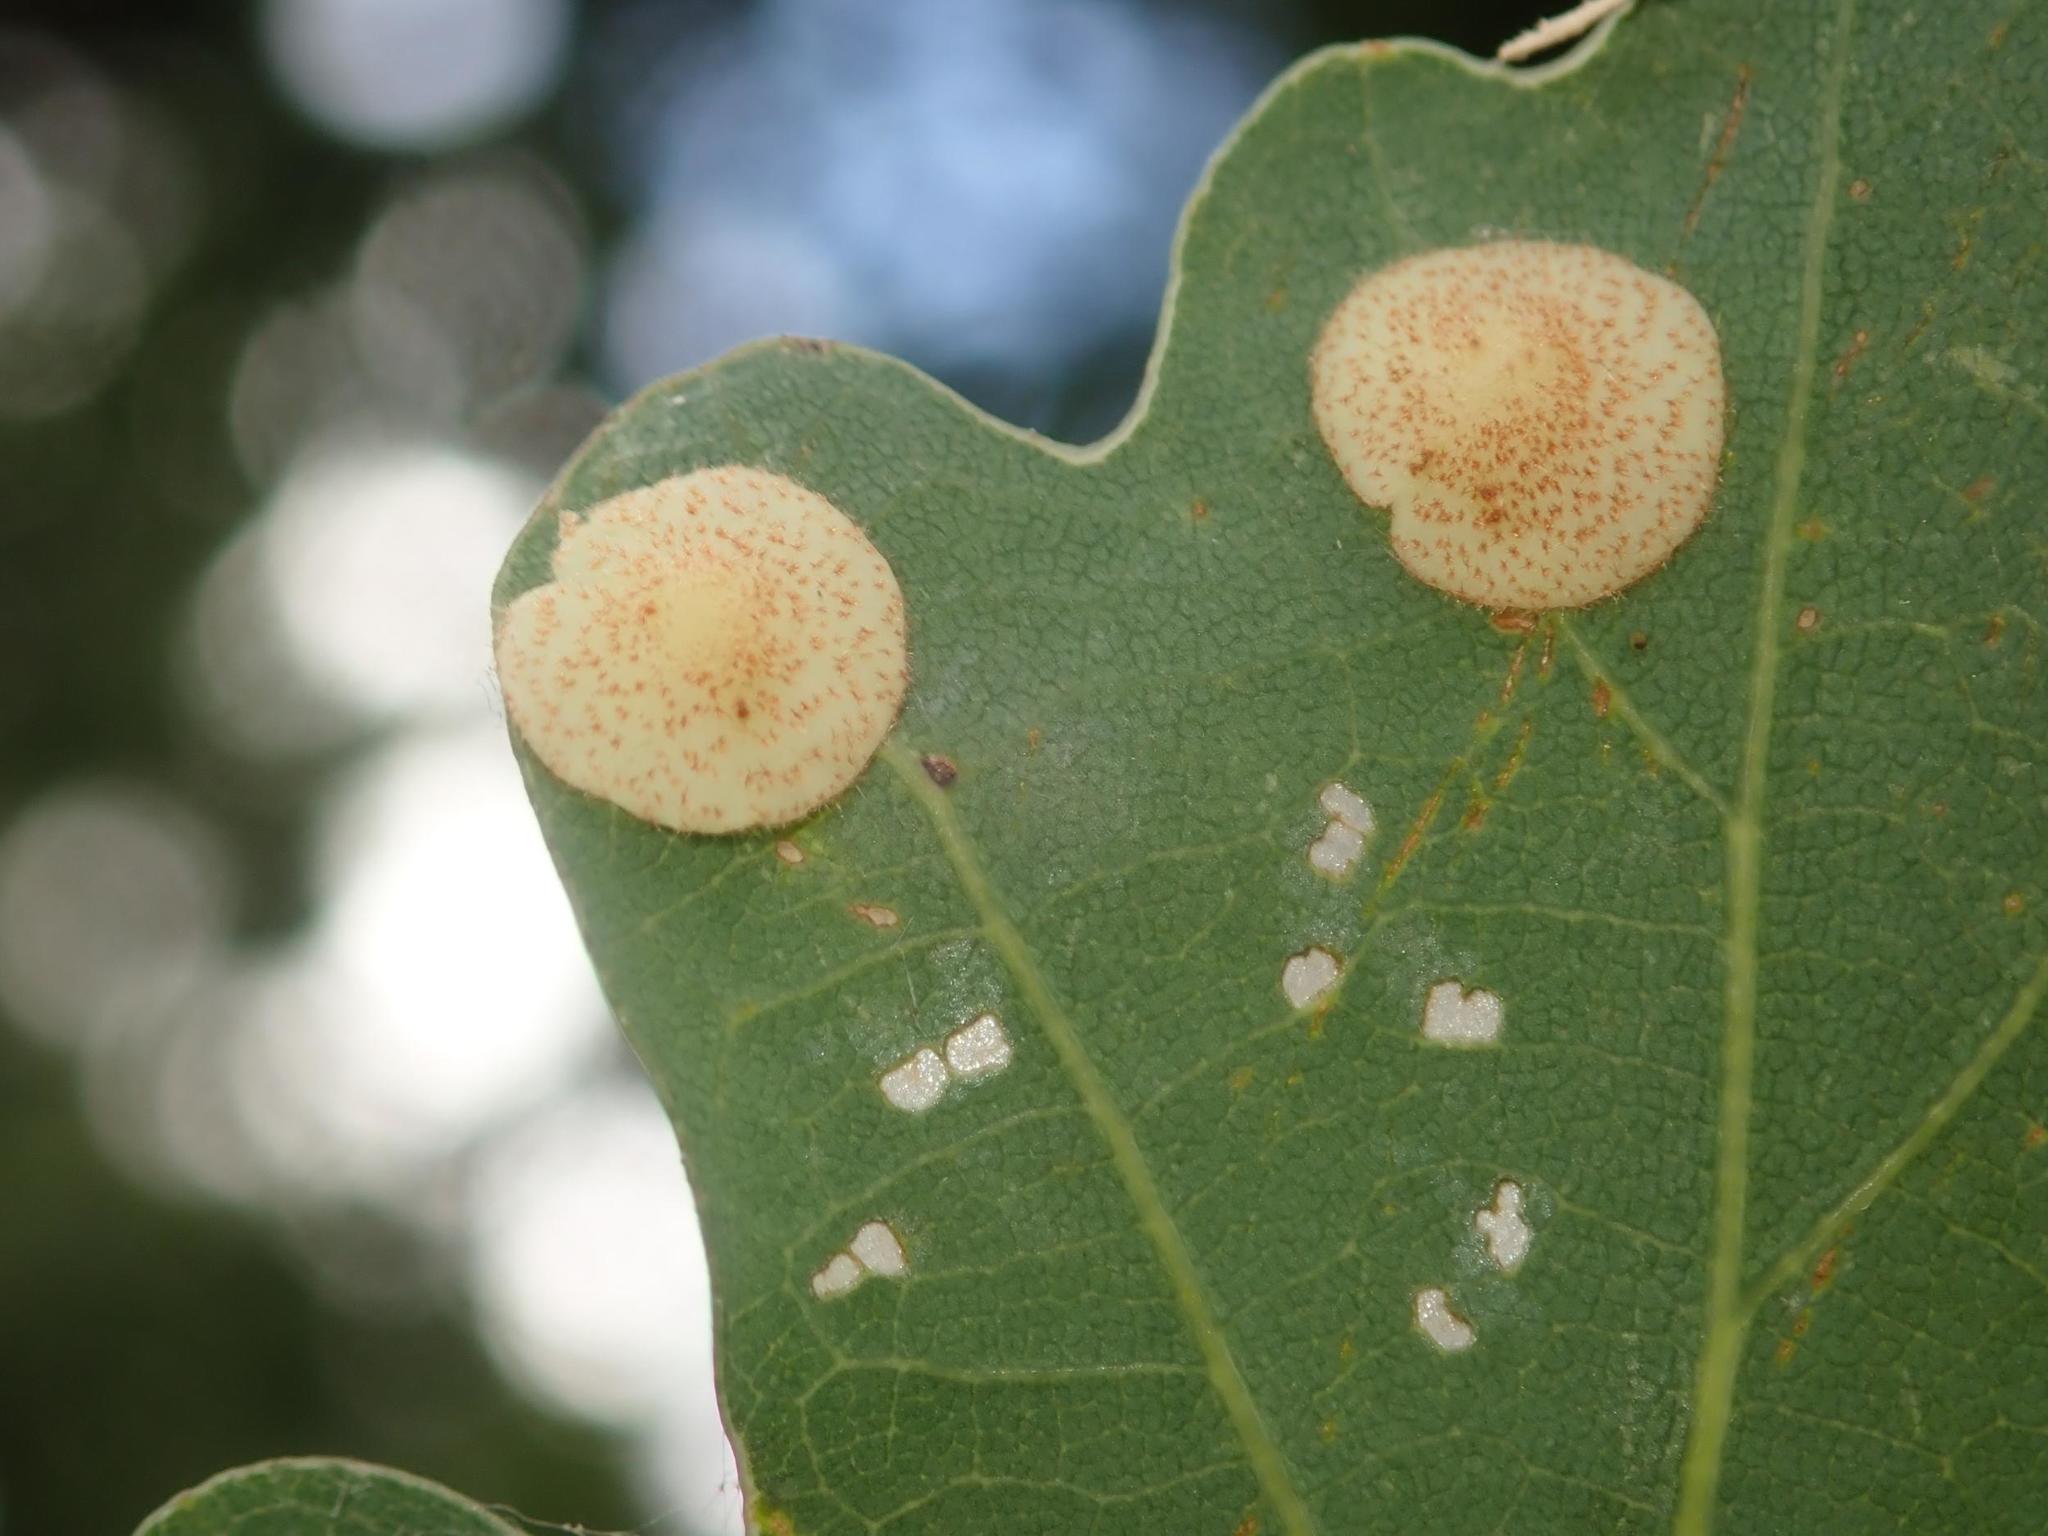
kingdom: Animalia
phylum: Arthropoda
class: Insecta
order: Hymenoptera
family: Cynipidae
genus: Neuroterus
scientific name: Neuroterus quercusbaccarum
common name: Common spangle gall
